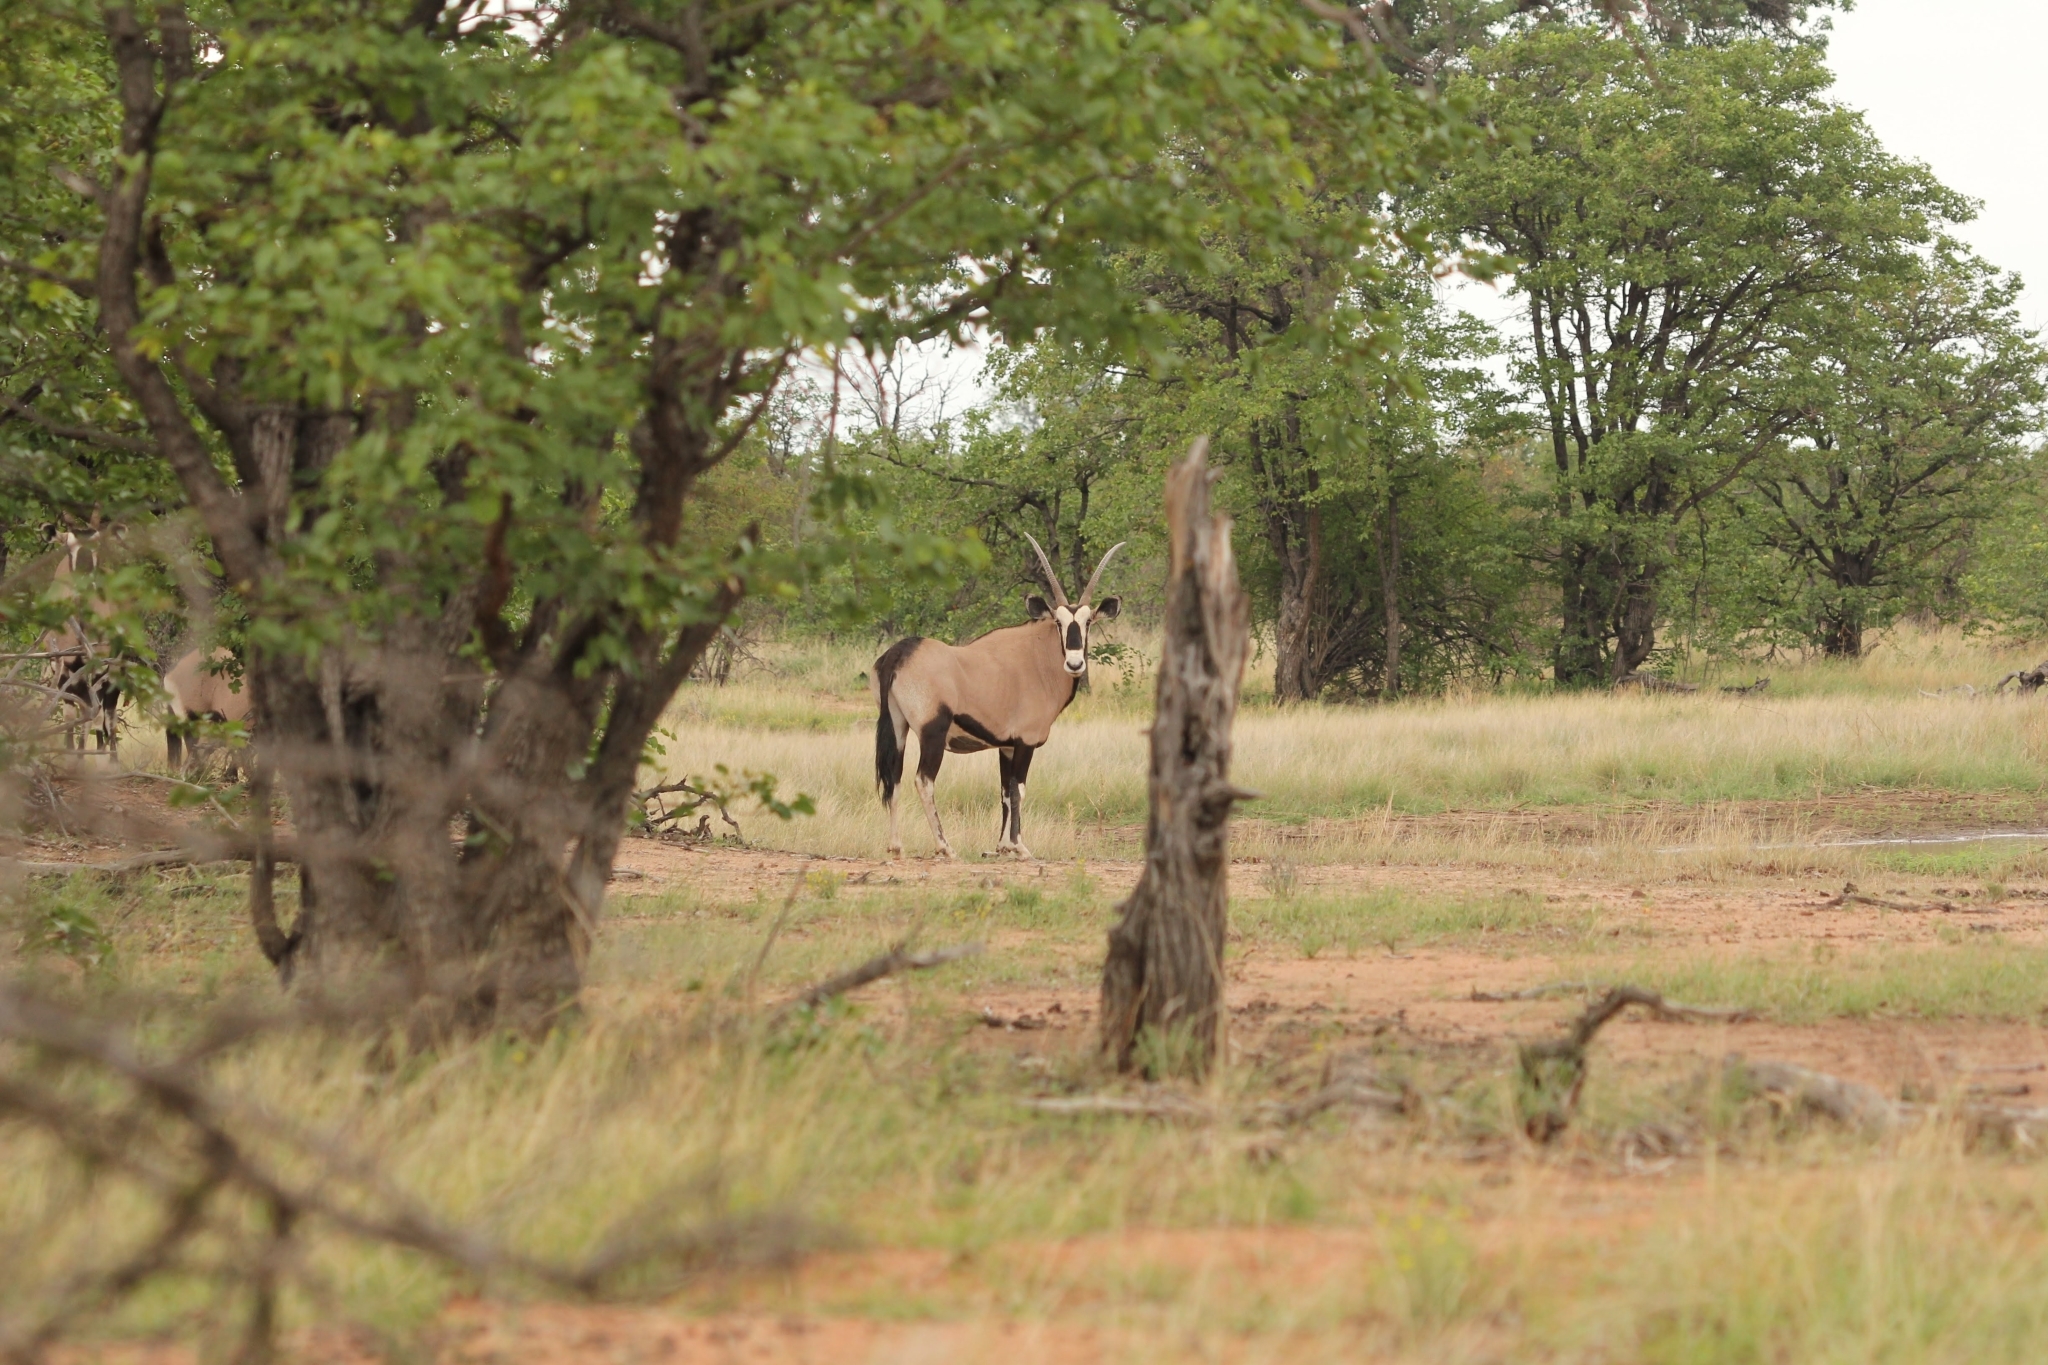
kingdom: Animalia
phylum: Chordata
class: Mammalia
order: Artiodactyla
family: Bovidae
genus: Oryx
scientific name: Oryx gazella
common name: Gemsbok
